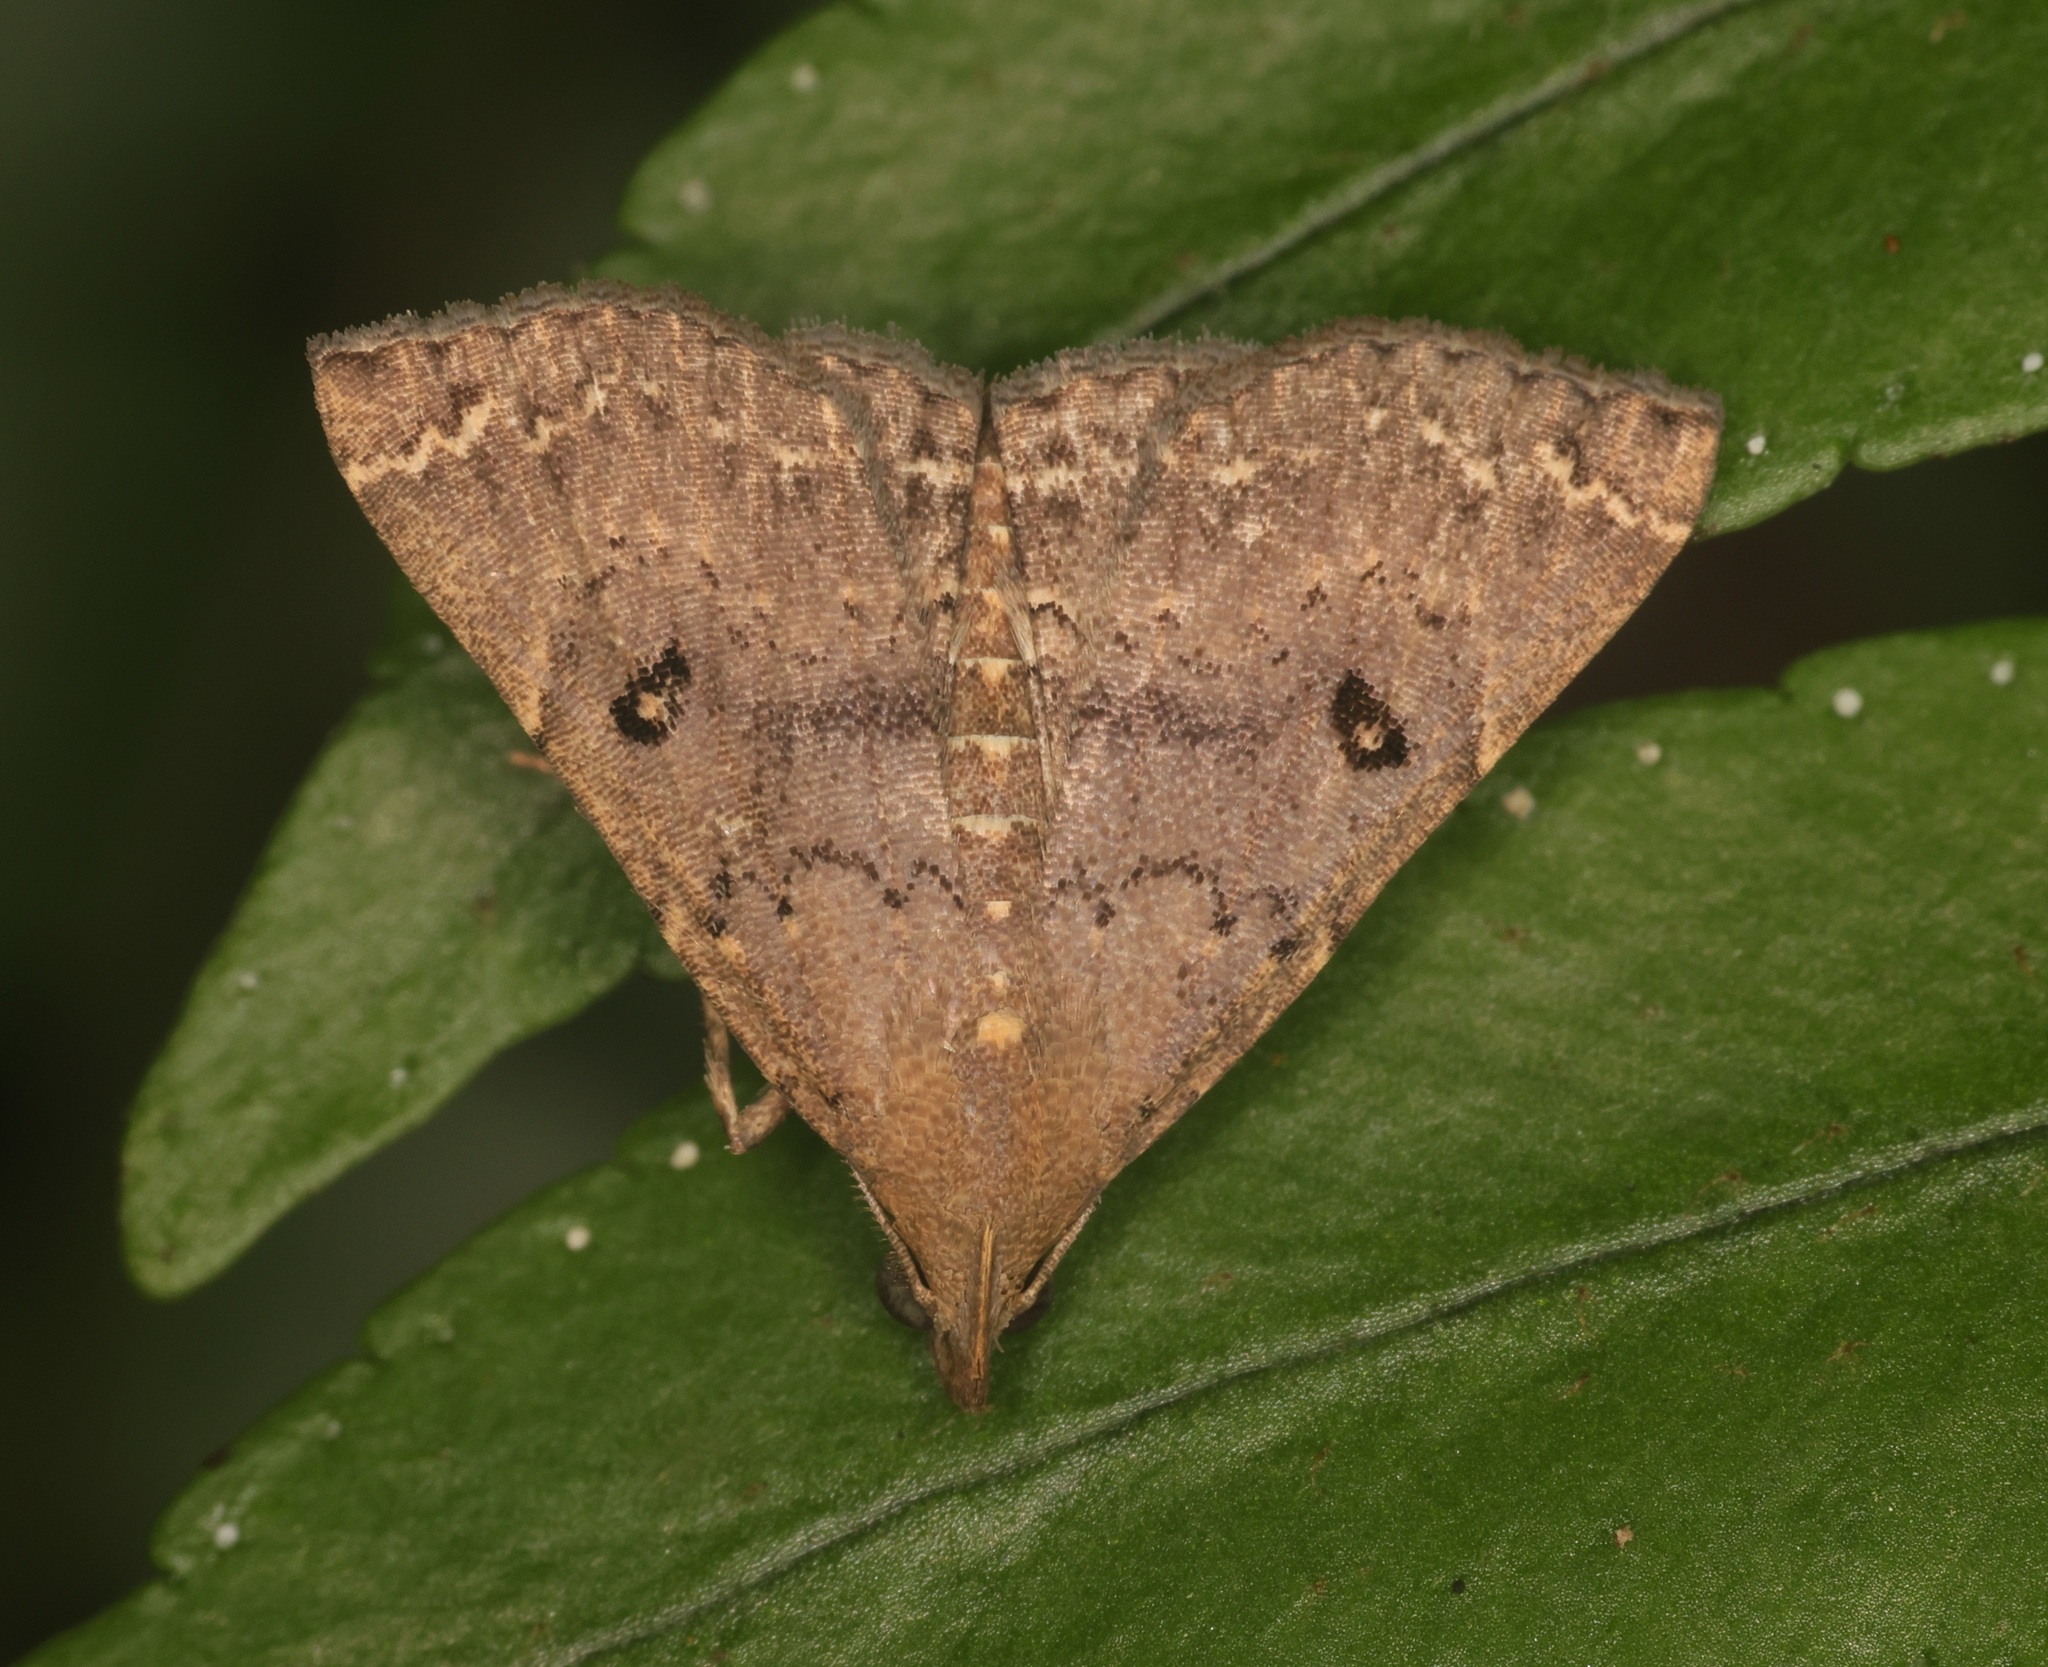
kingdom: Animalia
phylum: Arthropoda
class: Insecta
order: Lepidoptera
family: Erebidae
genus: Progonia
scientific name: Progonia oileusalis
